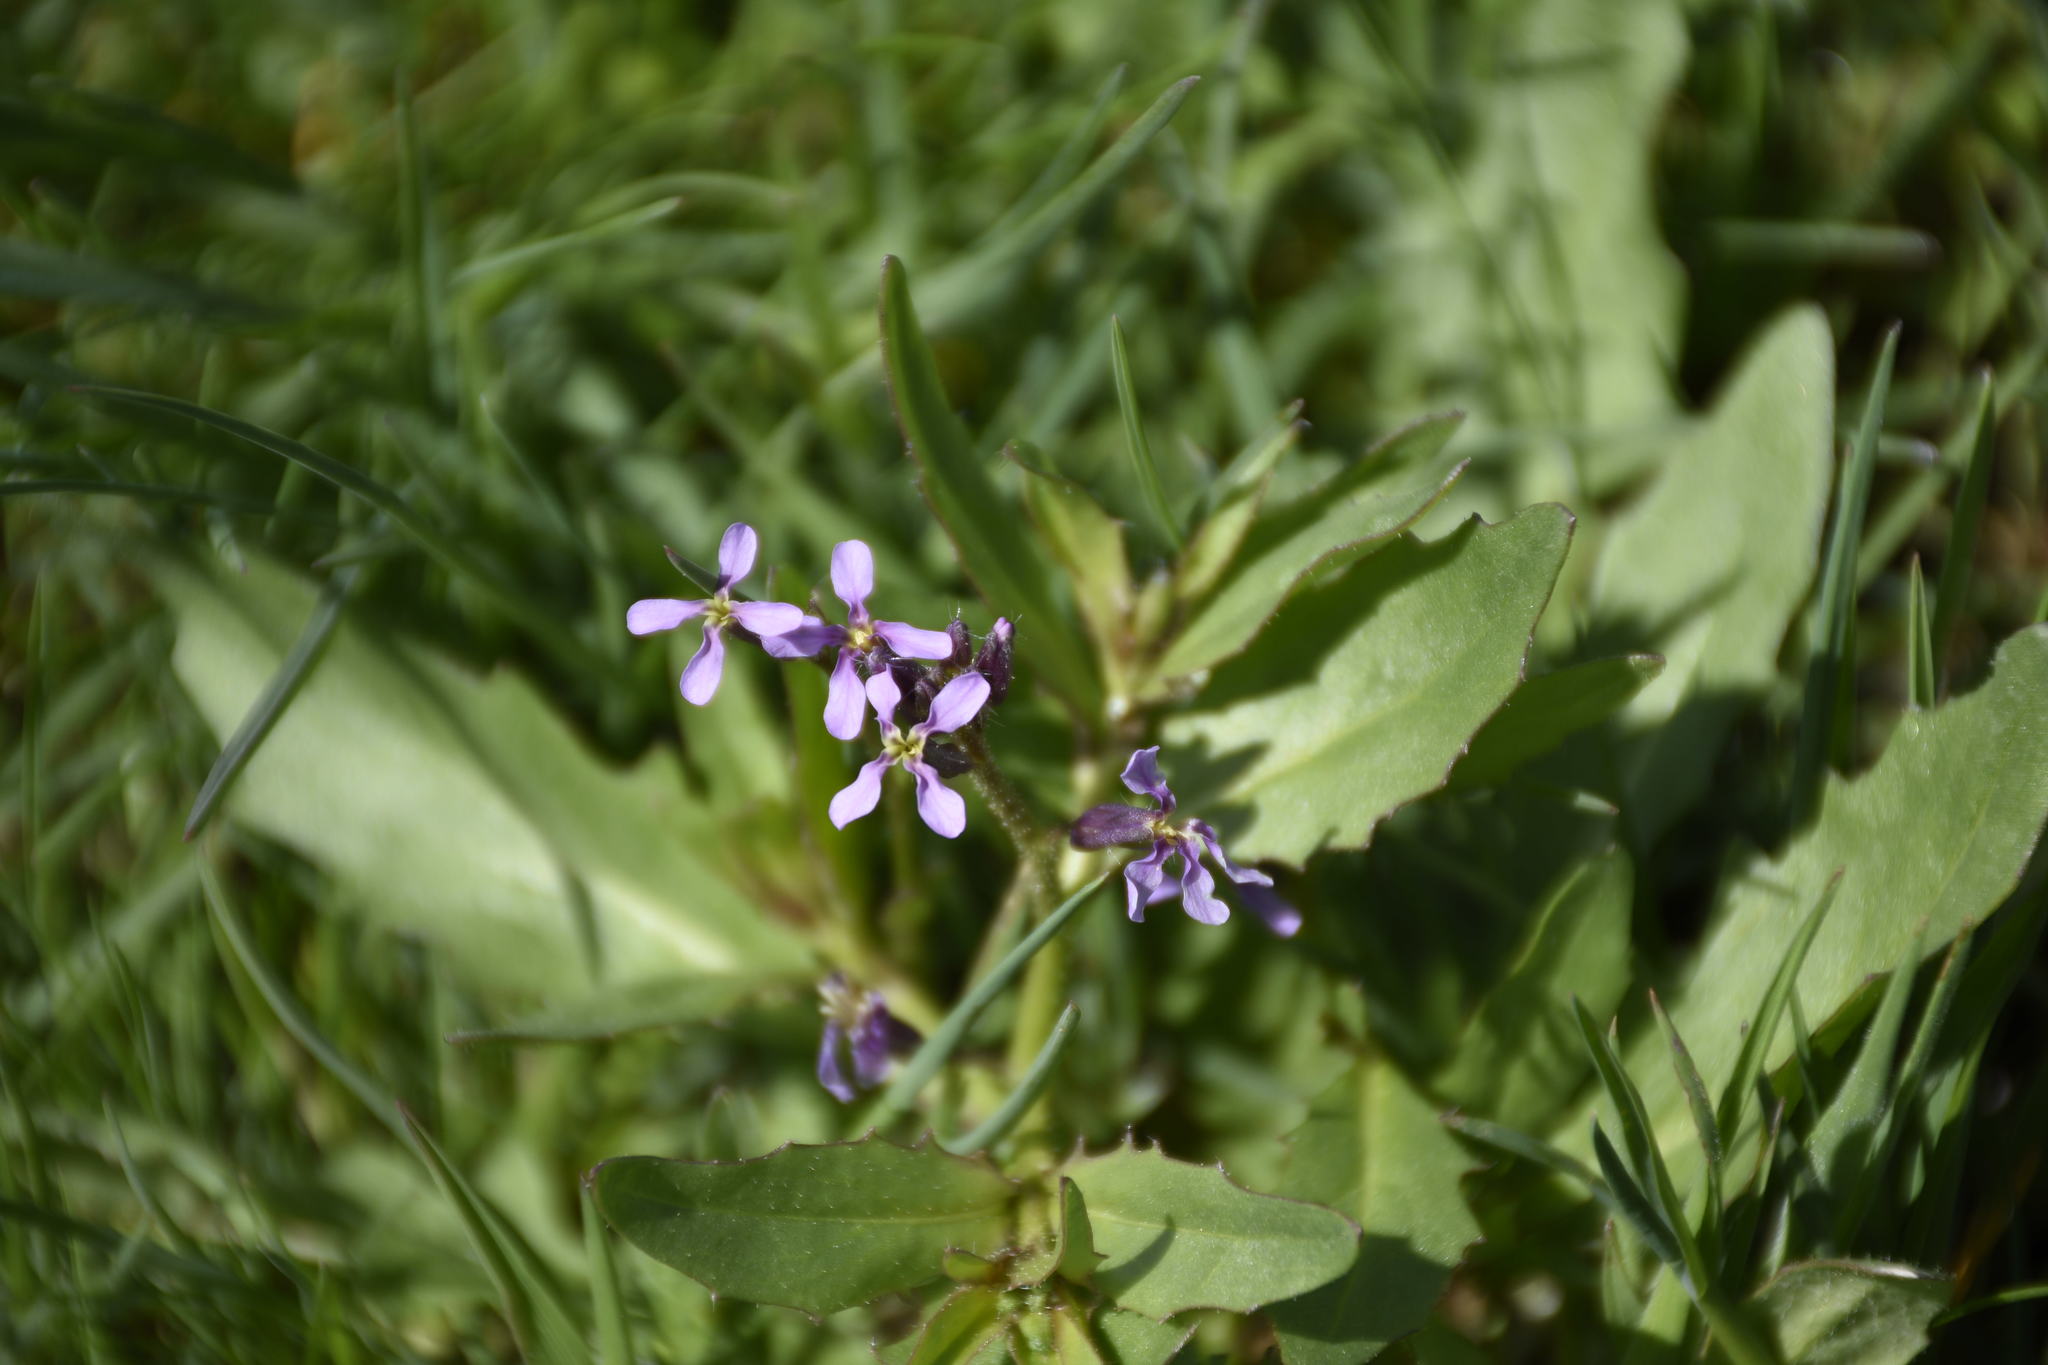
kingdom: Plantae
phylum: Tracheophyta
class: Magnoliopsida
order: Brassicales
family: Brassicaceae
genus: Chorispora
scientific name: Chorispora tenella
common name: Crossflower
